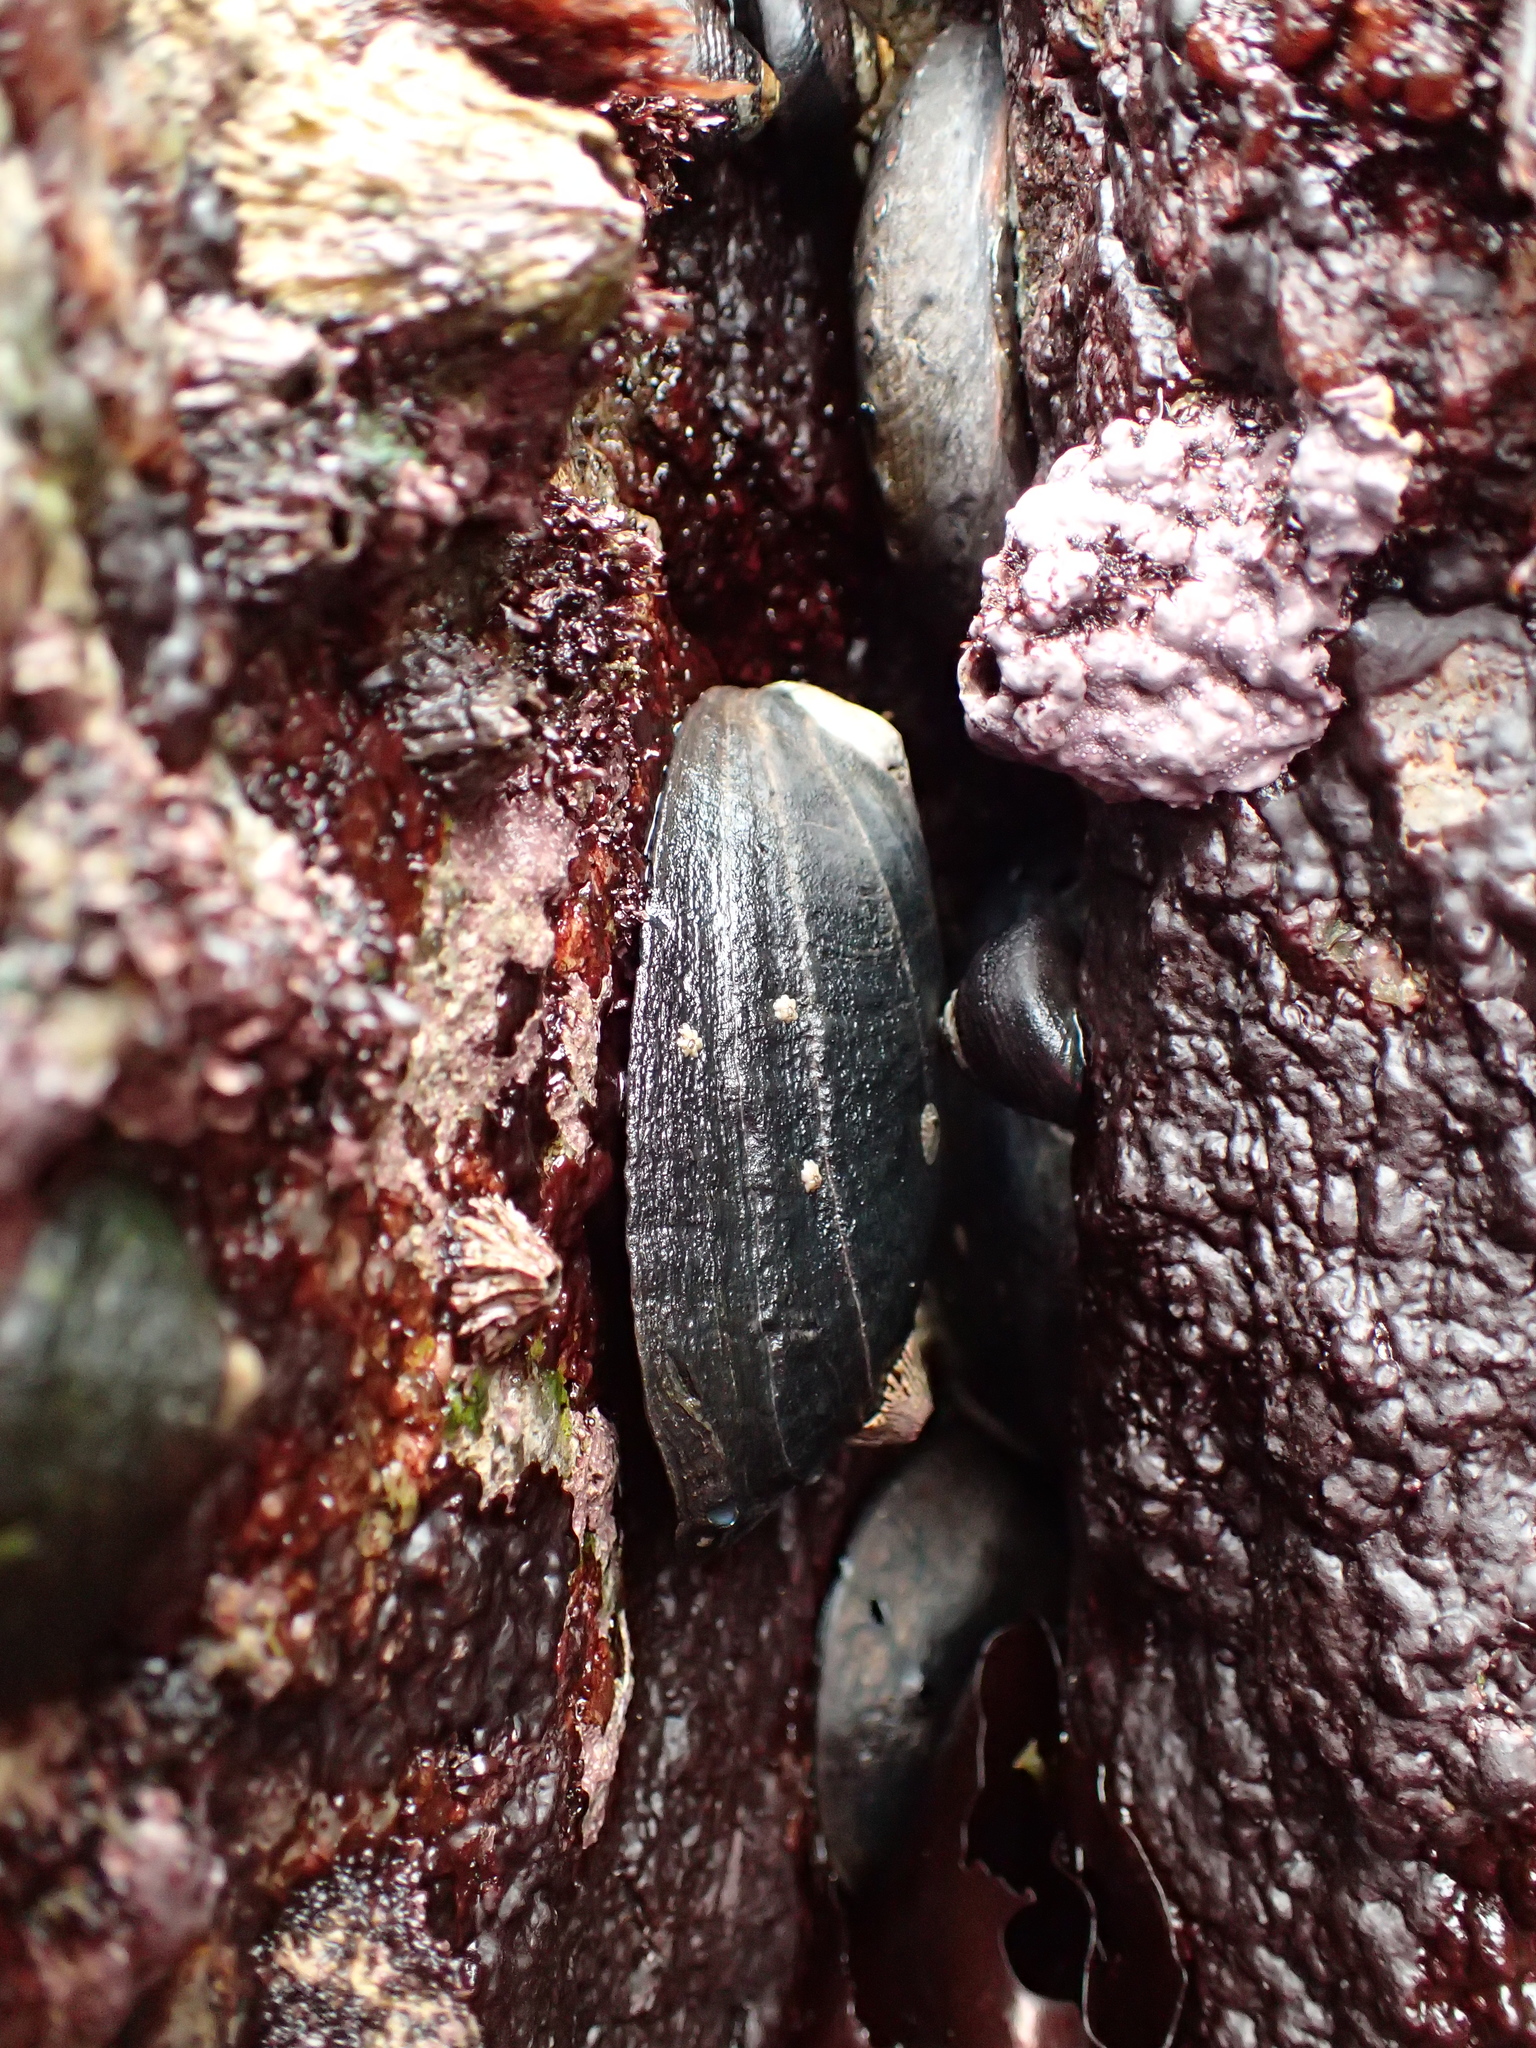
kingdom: Animalia
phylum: Mollusca
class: Gastropoda
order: Lepetellida
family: Haliotidae
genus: Haliotis
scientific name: Haliotis cracherodii
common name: Black abalone
